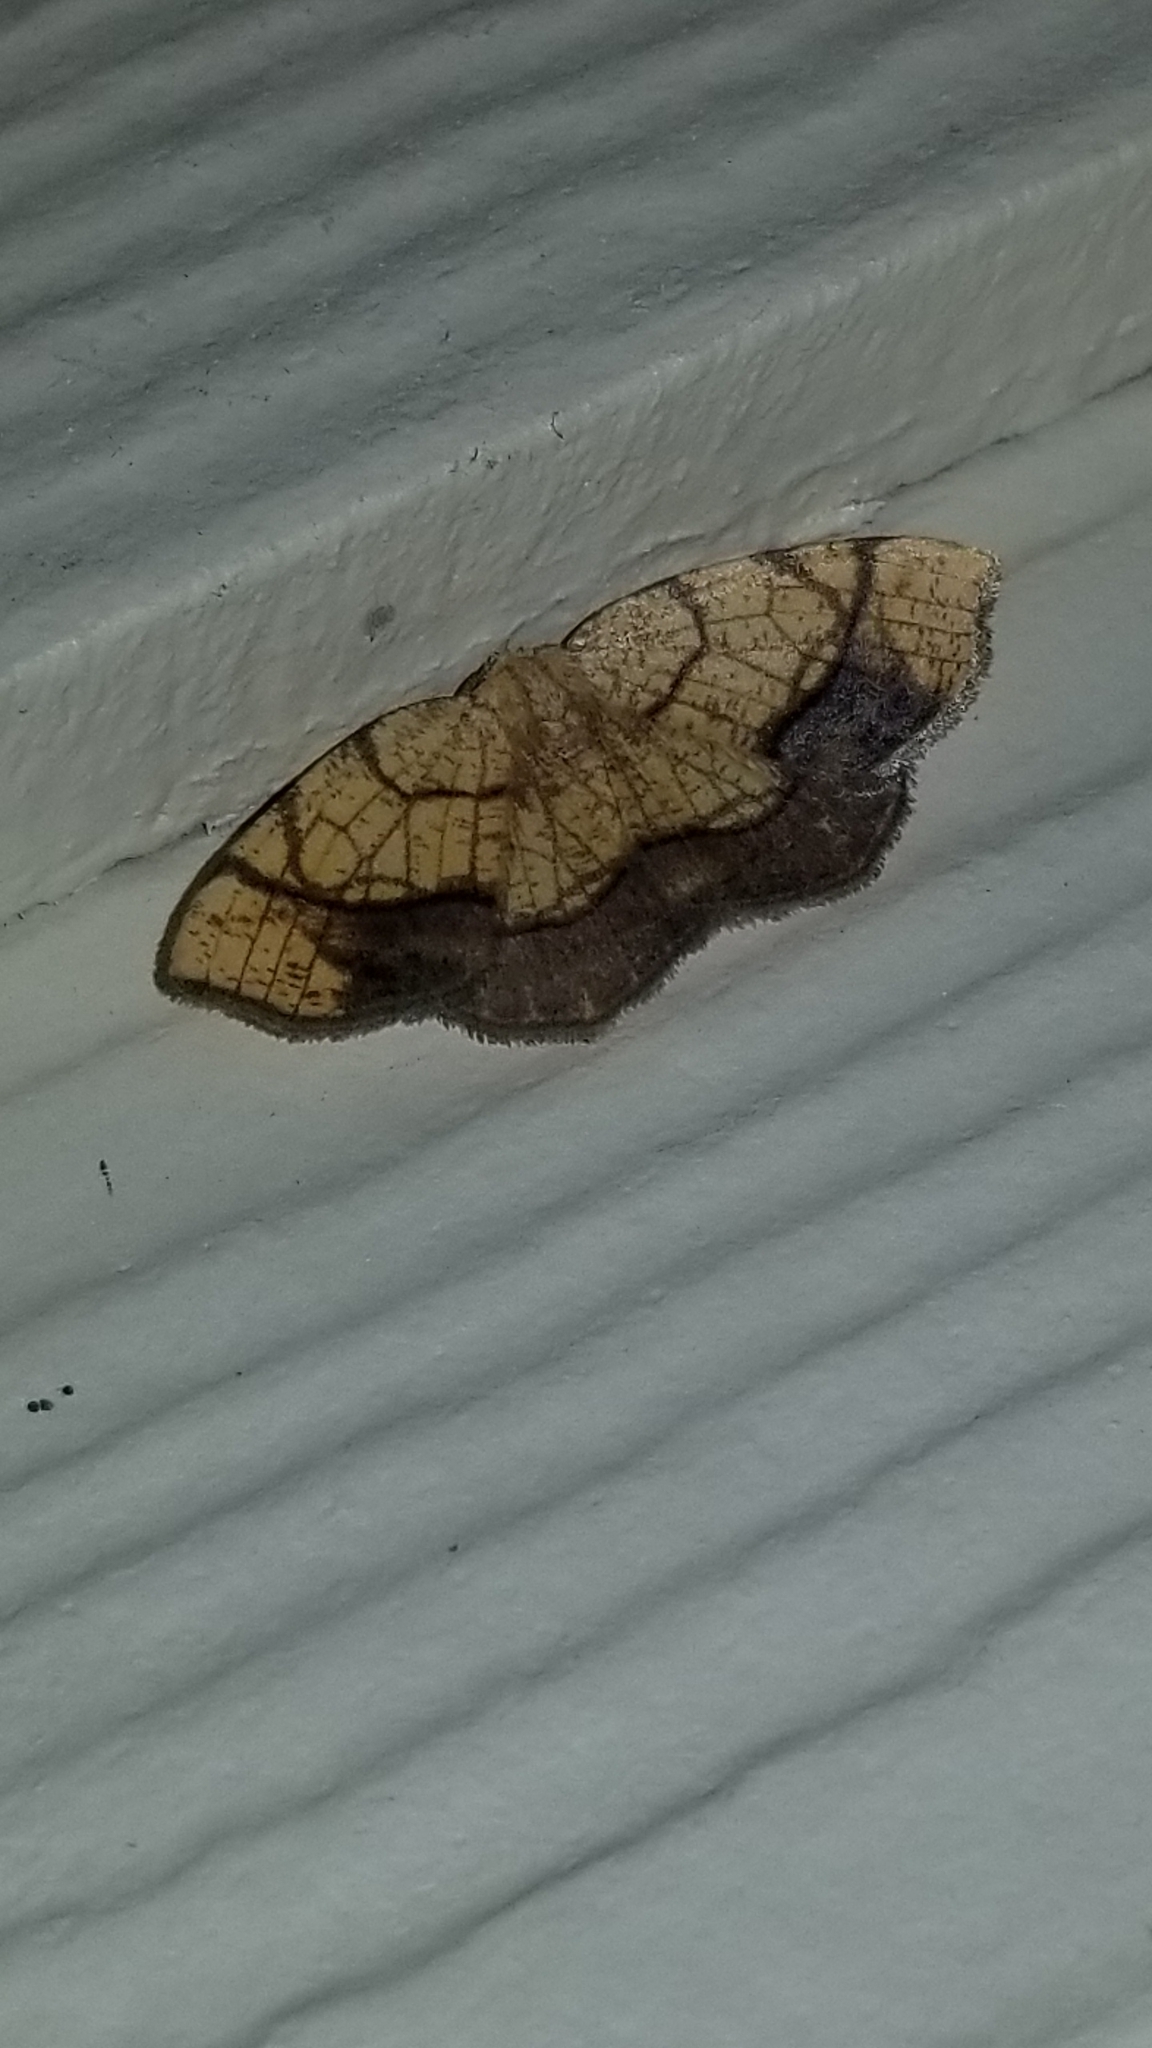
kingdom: Animalia
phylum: Arthropoda
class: Insecta
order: Lepidoptera
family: Geometridae
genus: Nematocampa
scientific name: Nematocampa resistaria
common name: Horned spanworm moth
